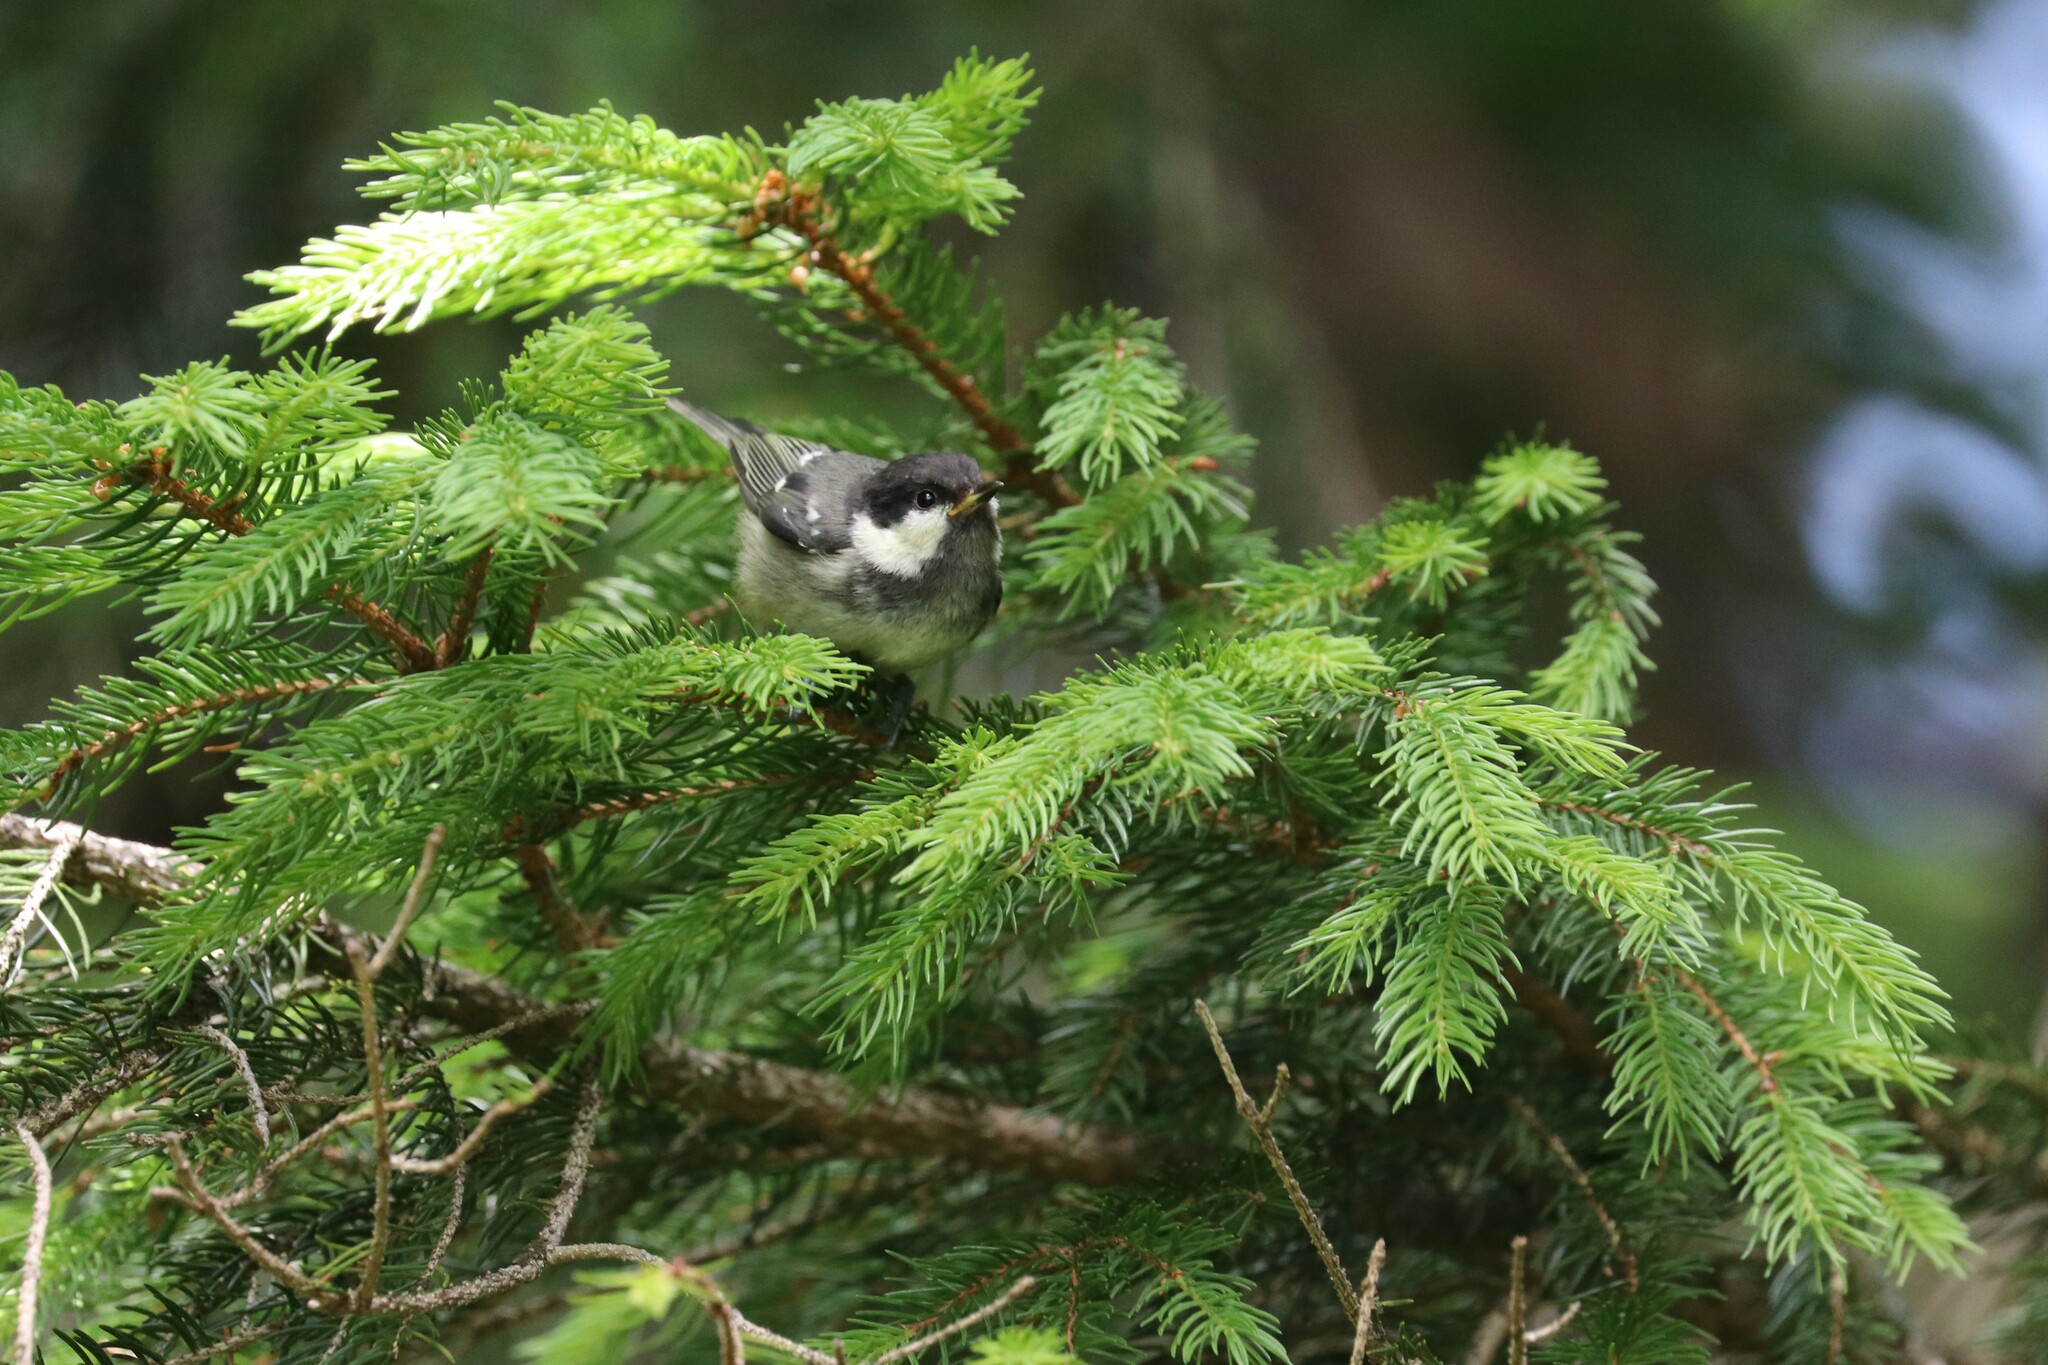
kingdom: Animalia
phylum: Chordata
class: Aves
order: Passeriformes
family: Paridae
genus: Periparus
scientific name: Periparus ater
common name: Coal tit
